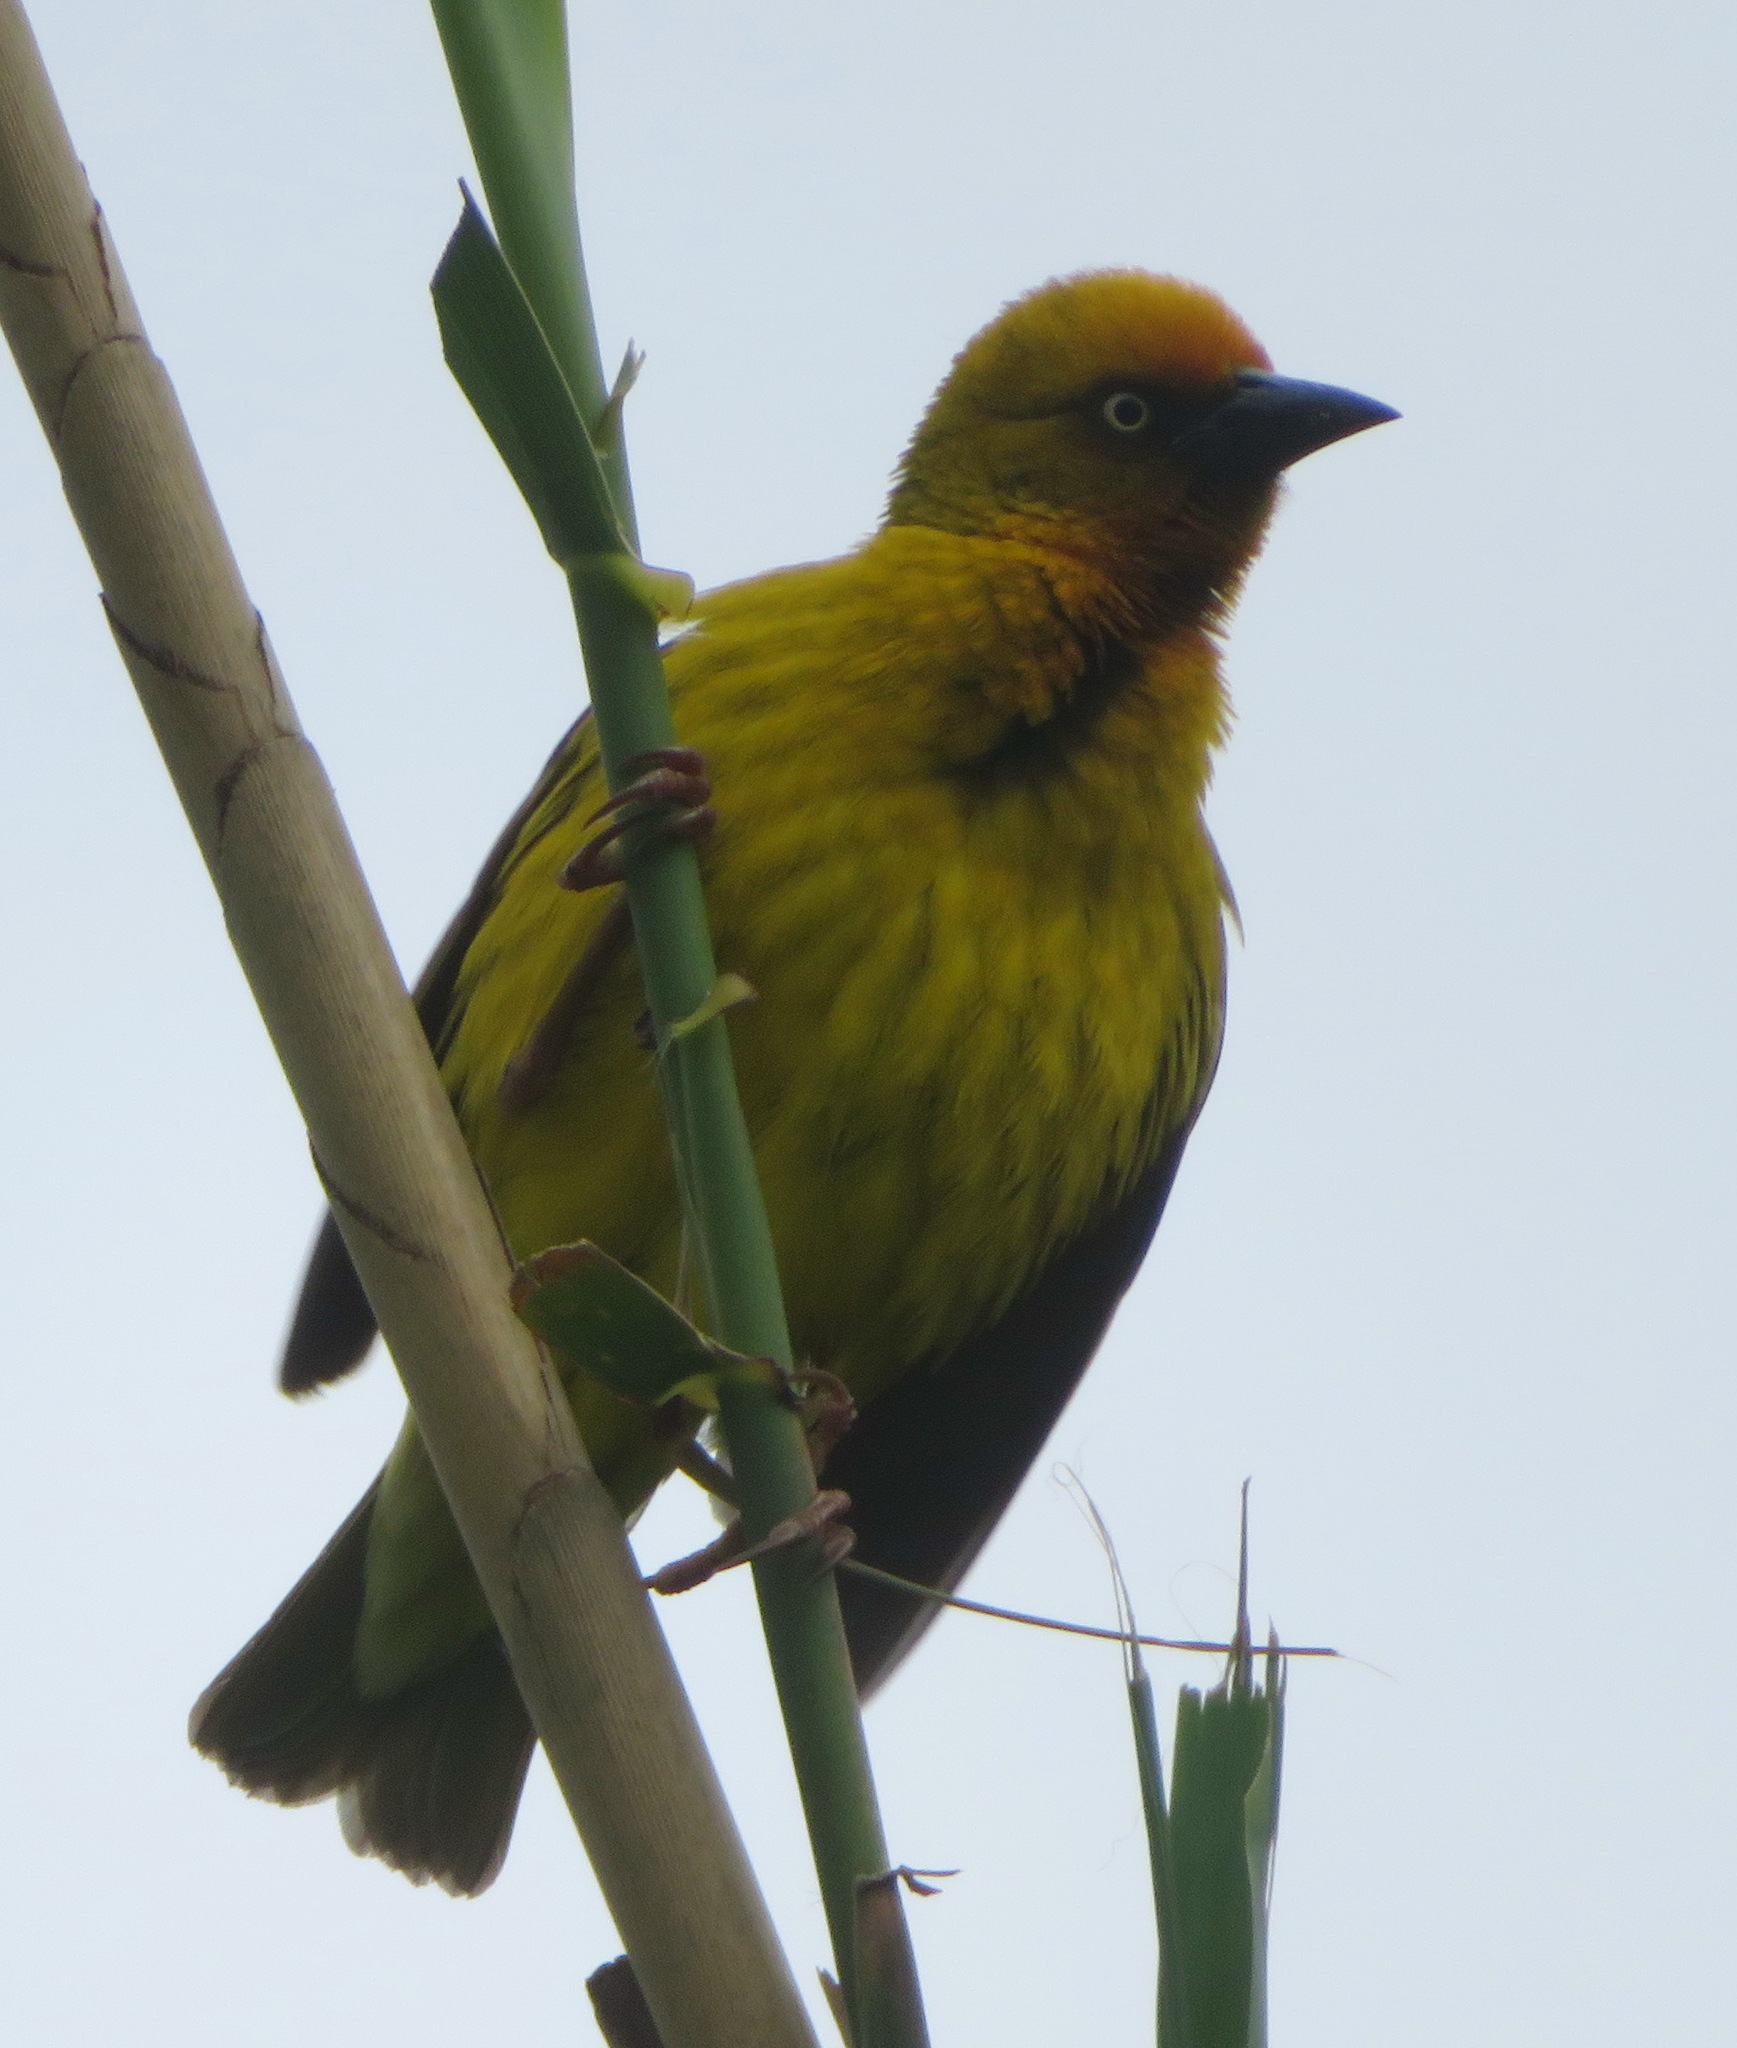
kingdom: Animalia
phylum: Chordata
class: Aves
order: Passeriformes
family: Ploceidae
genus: Ploceus
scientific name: Ploceus capensis
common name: Cape weaver
